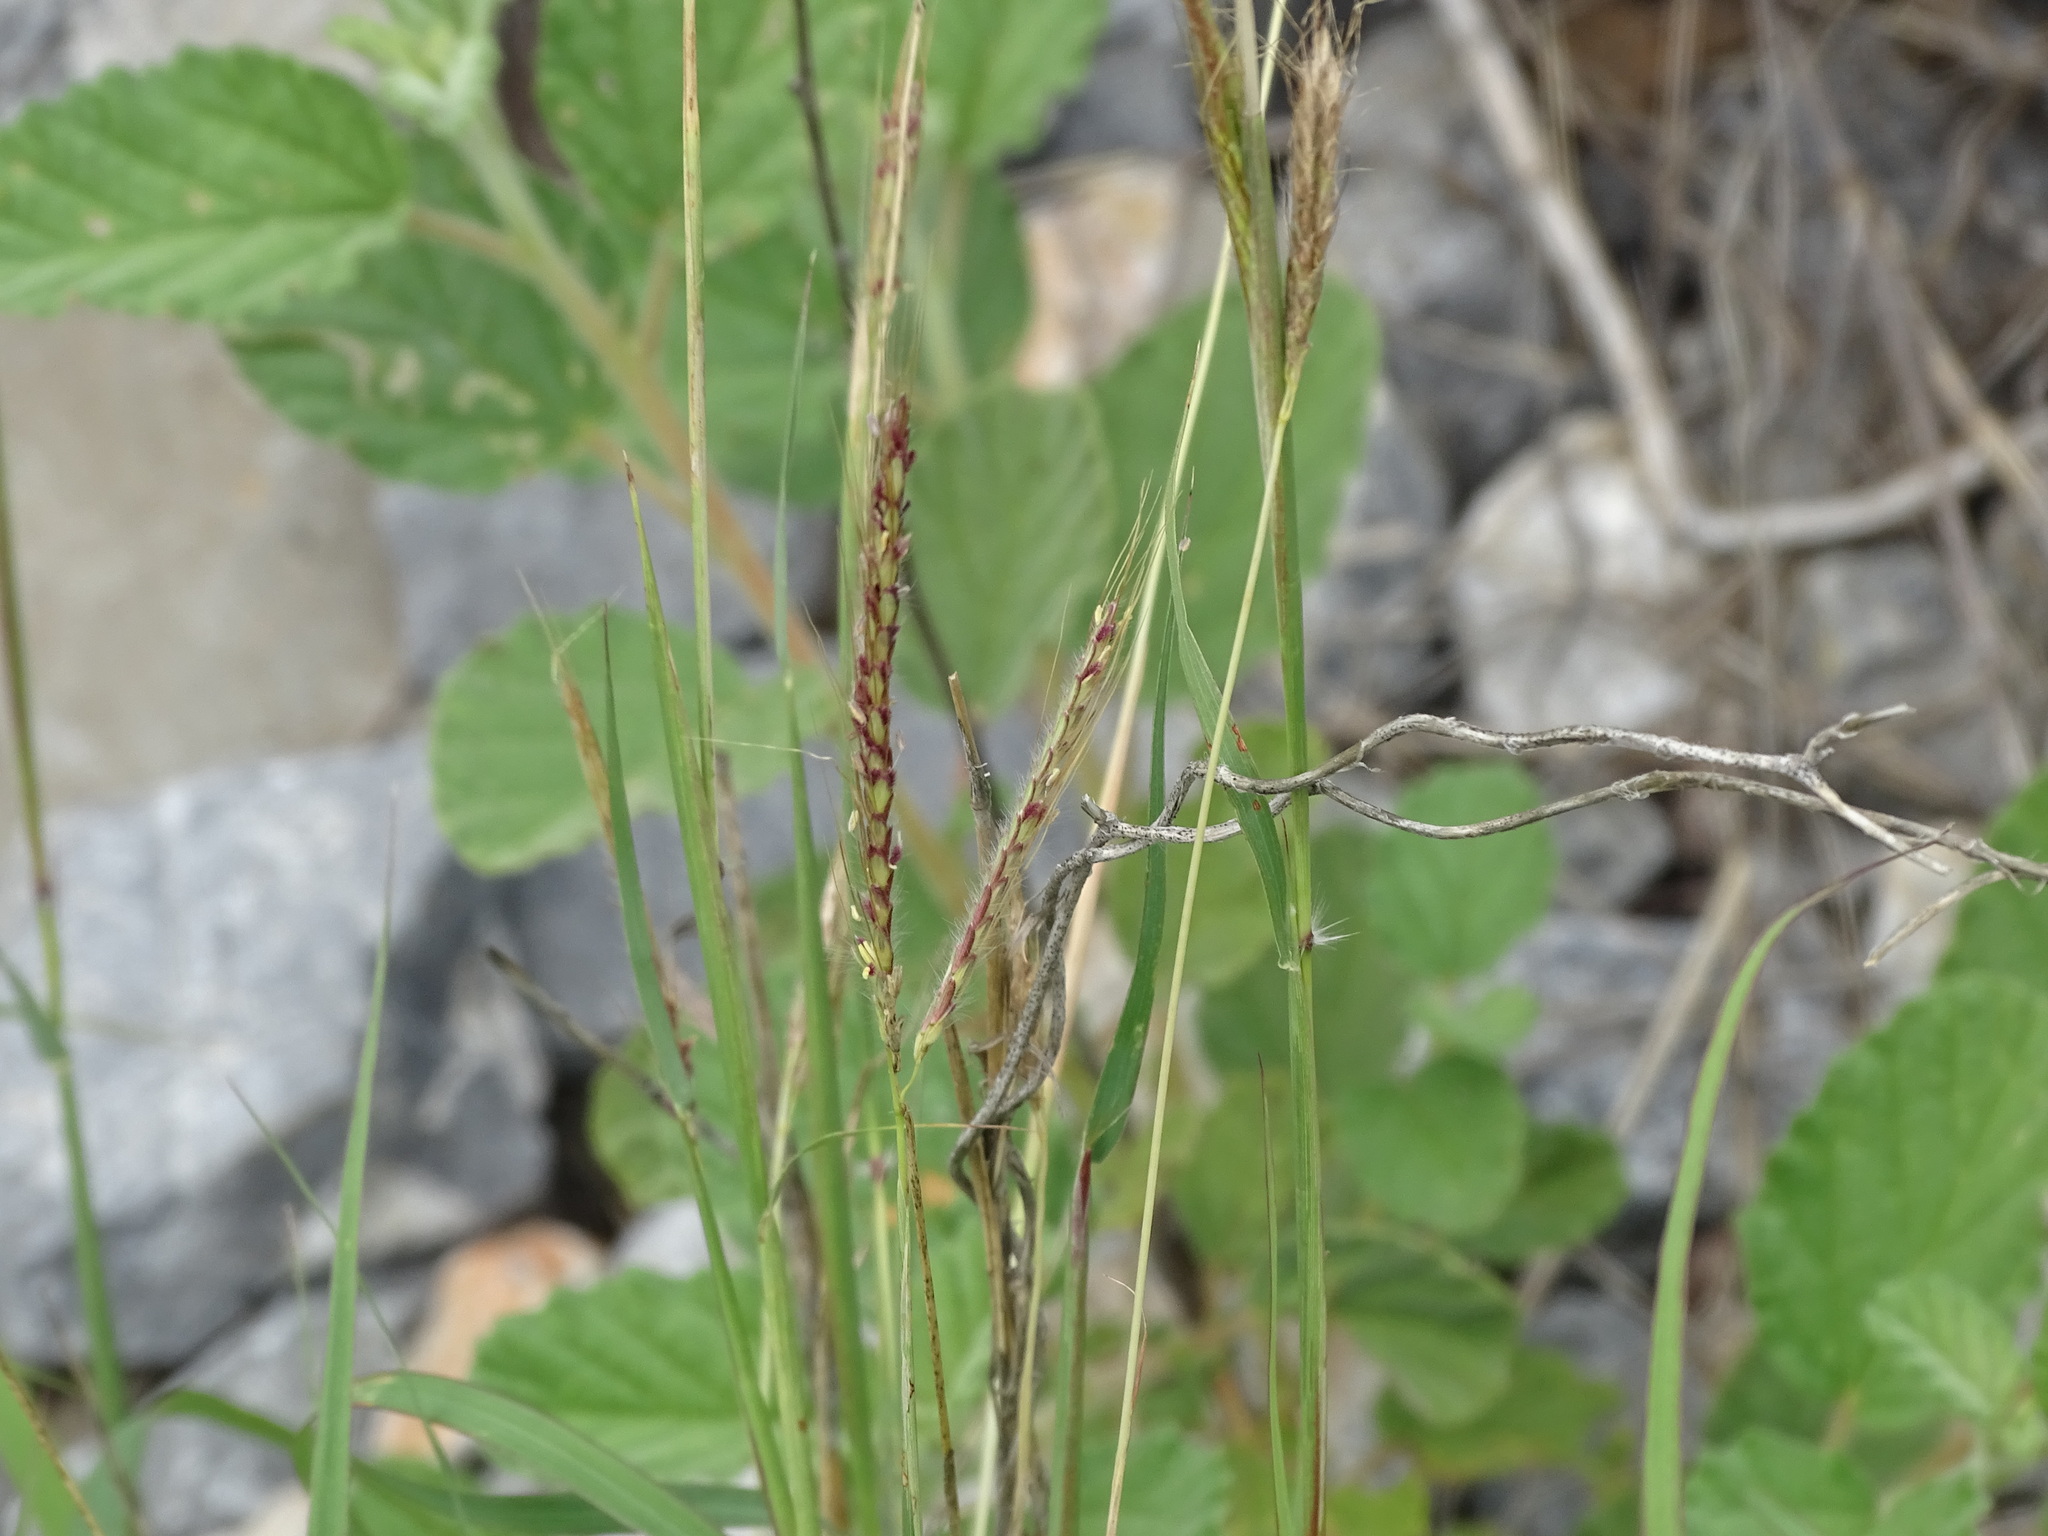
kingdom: Plantae
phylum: Tracheophyta
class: Liliopsida
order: Poales
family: Poaceae
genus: Dichanthium
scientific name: Dichanthium annulatum
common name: Kleberg's bluestem
